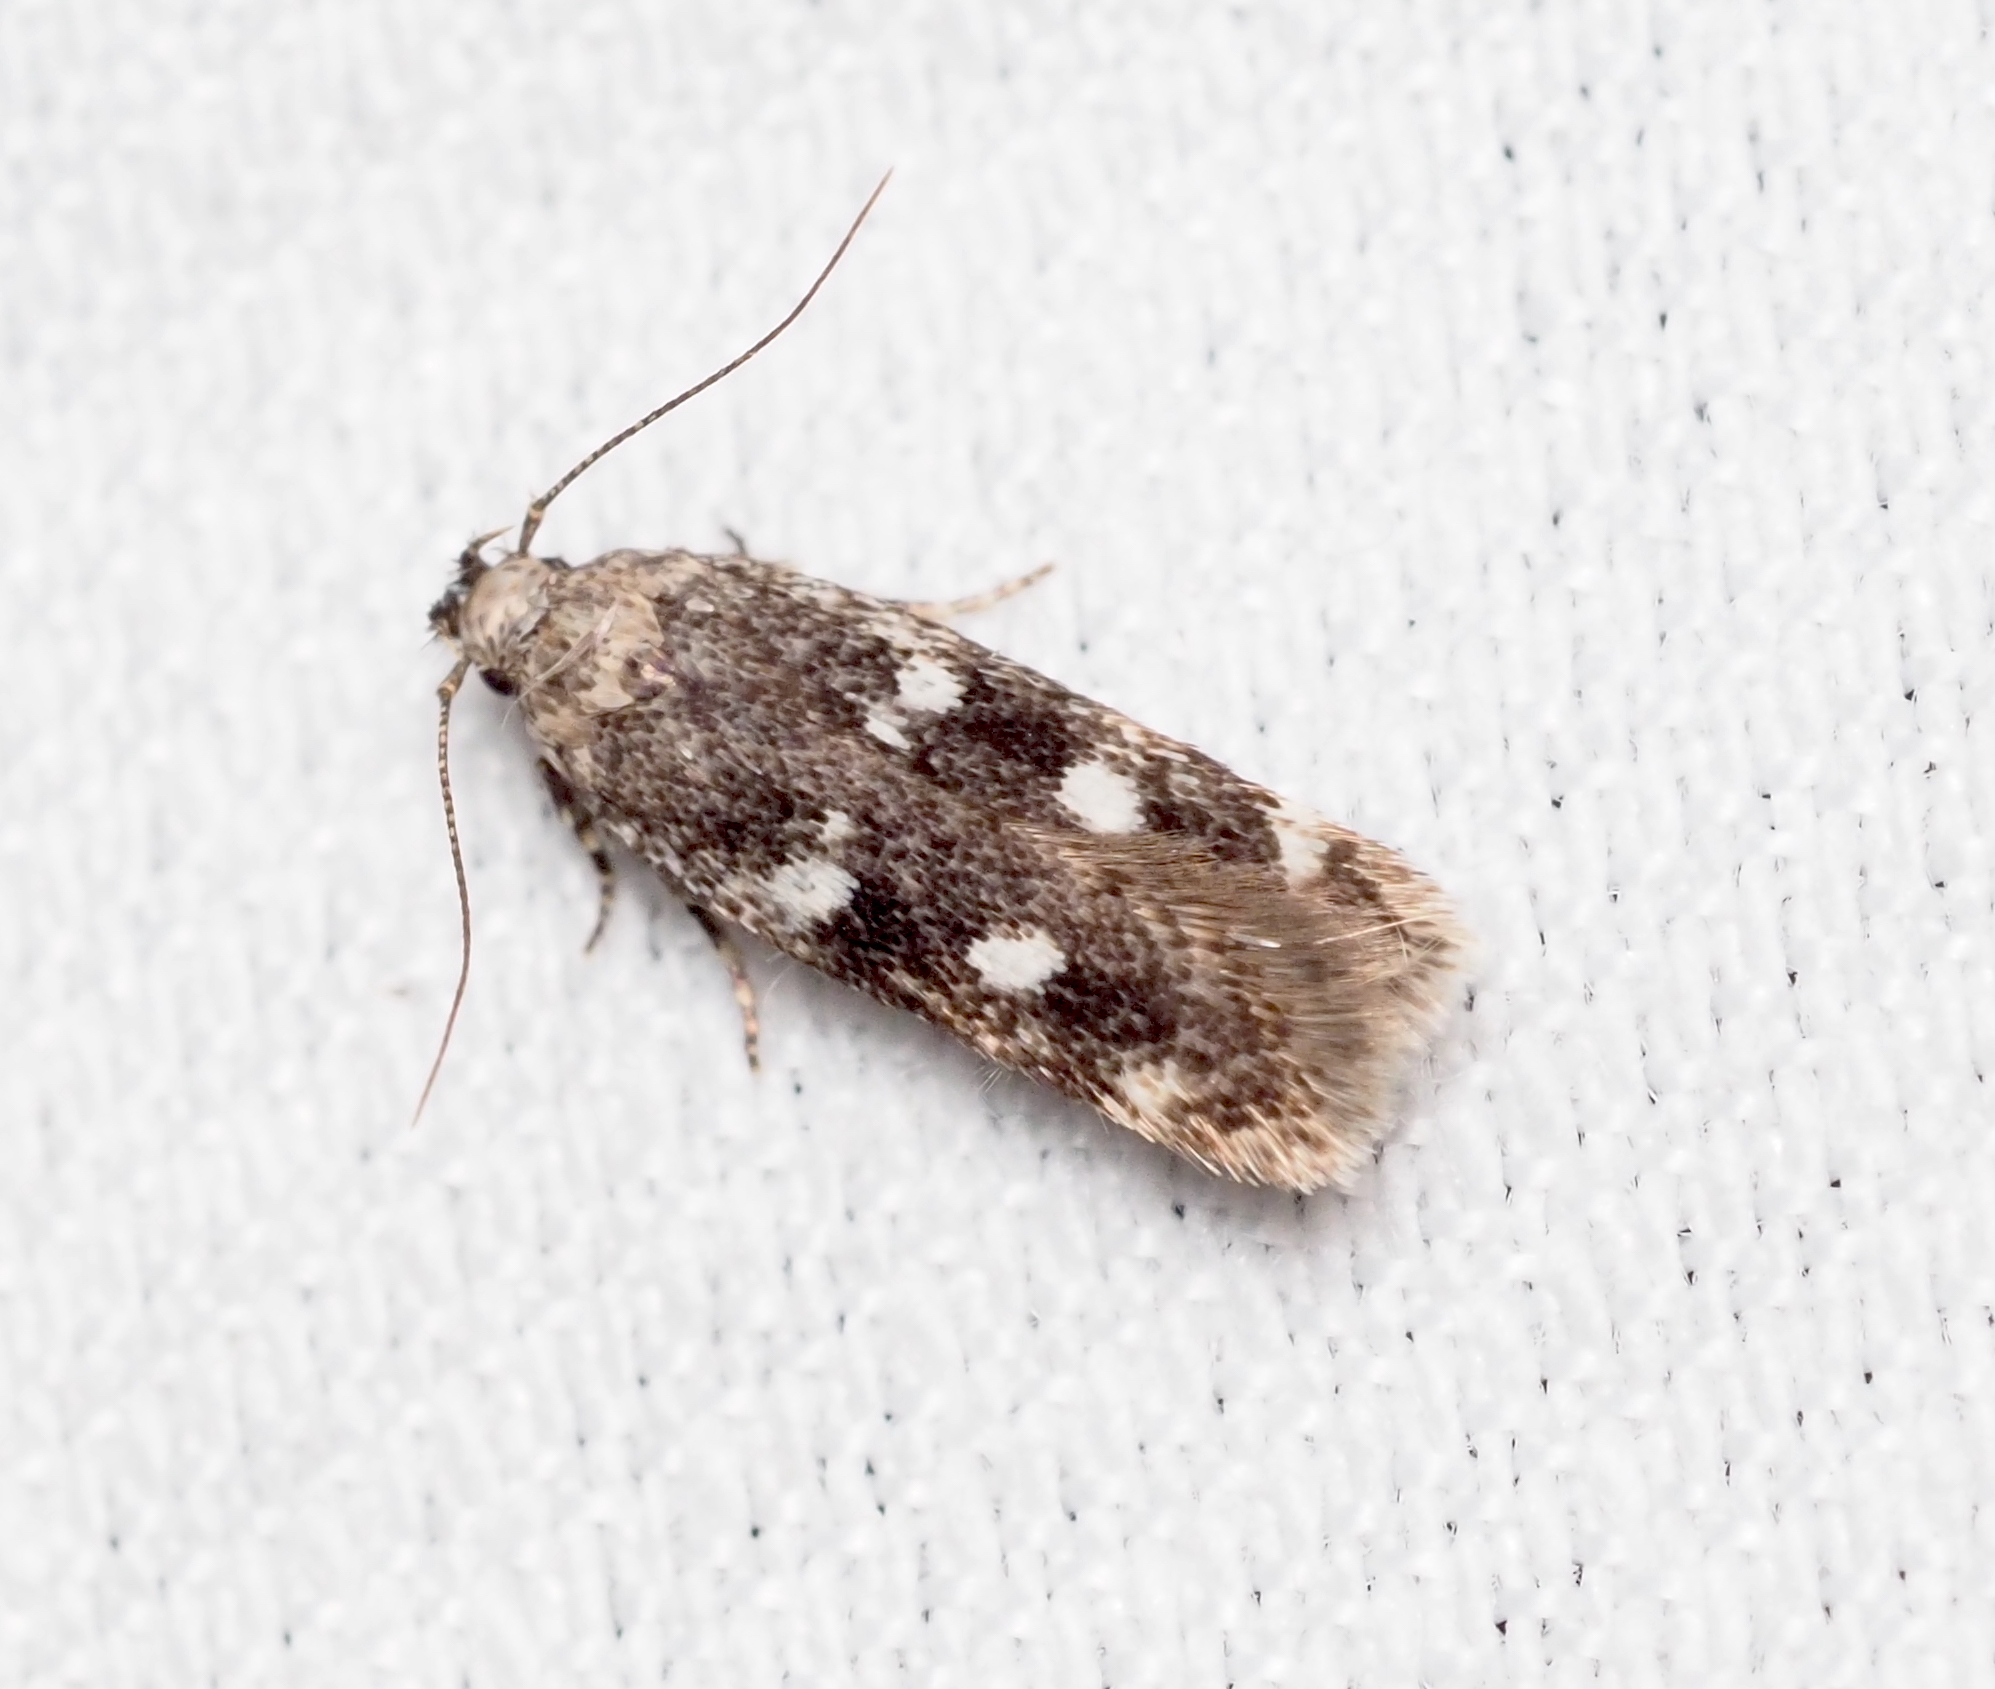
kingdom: Animalia
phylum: Arthropoda
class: Insecta
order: Lepidoptera
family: Gelechiidae
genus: Gelechia
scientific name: Gelechia sestertiella
